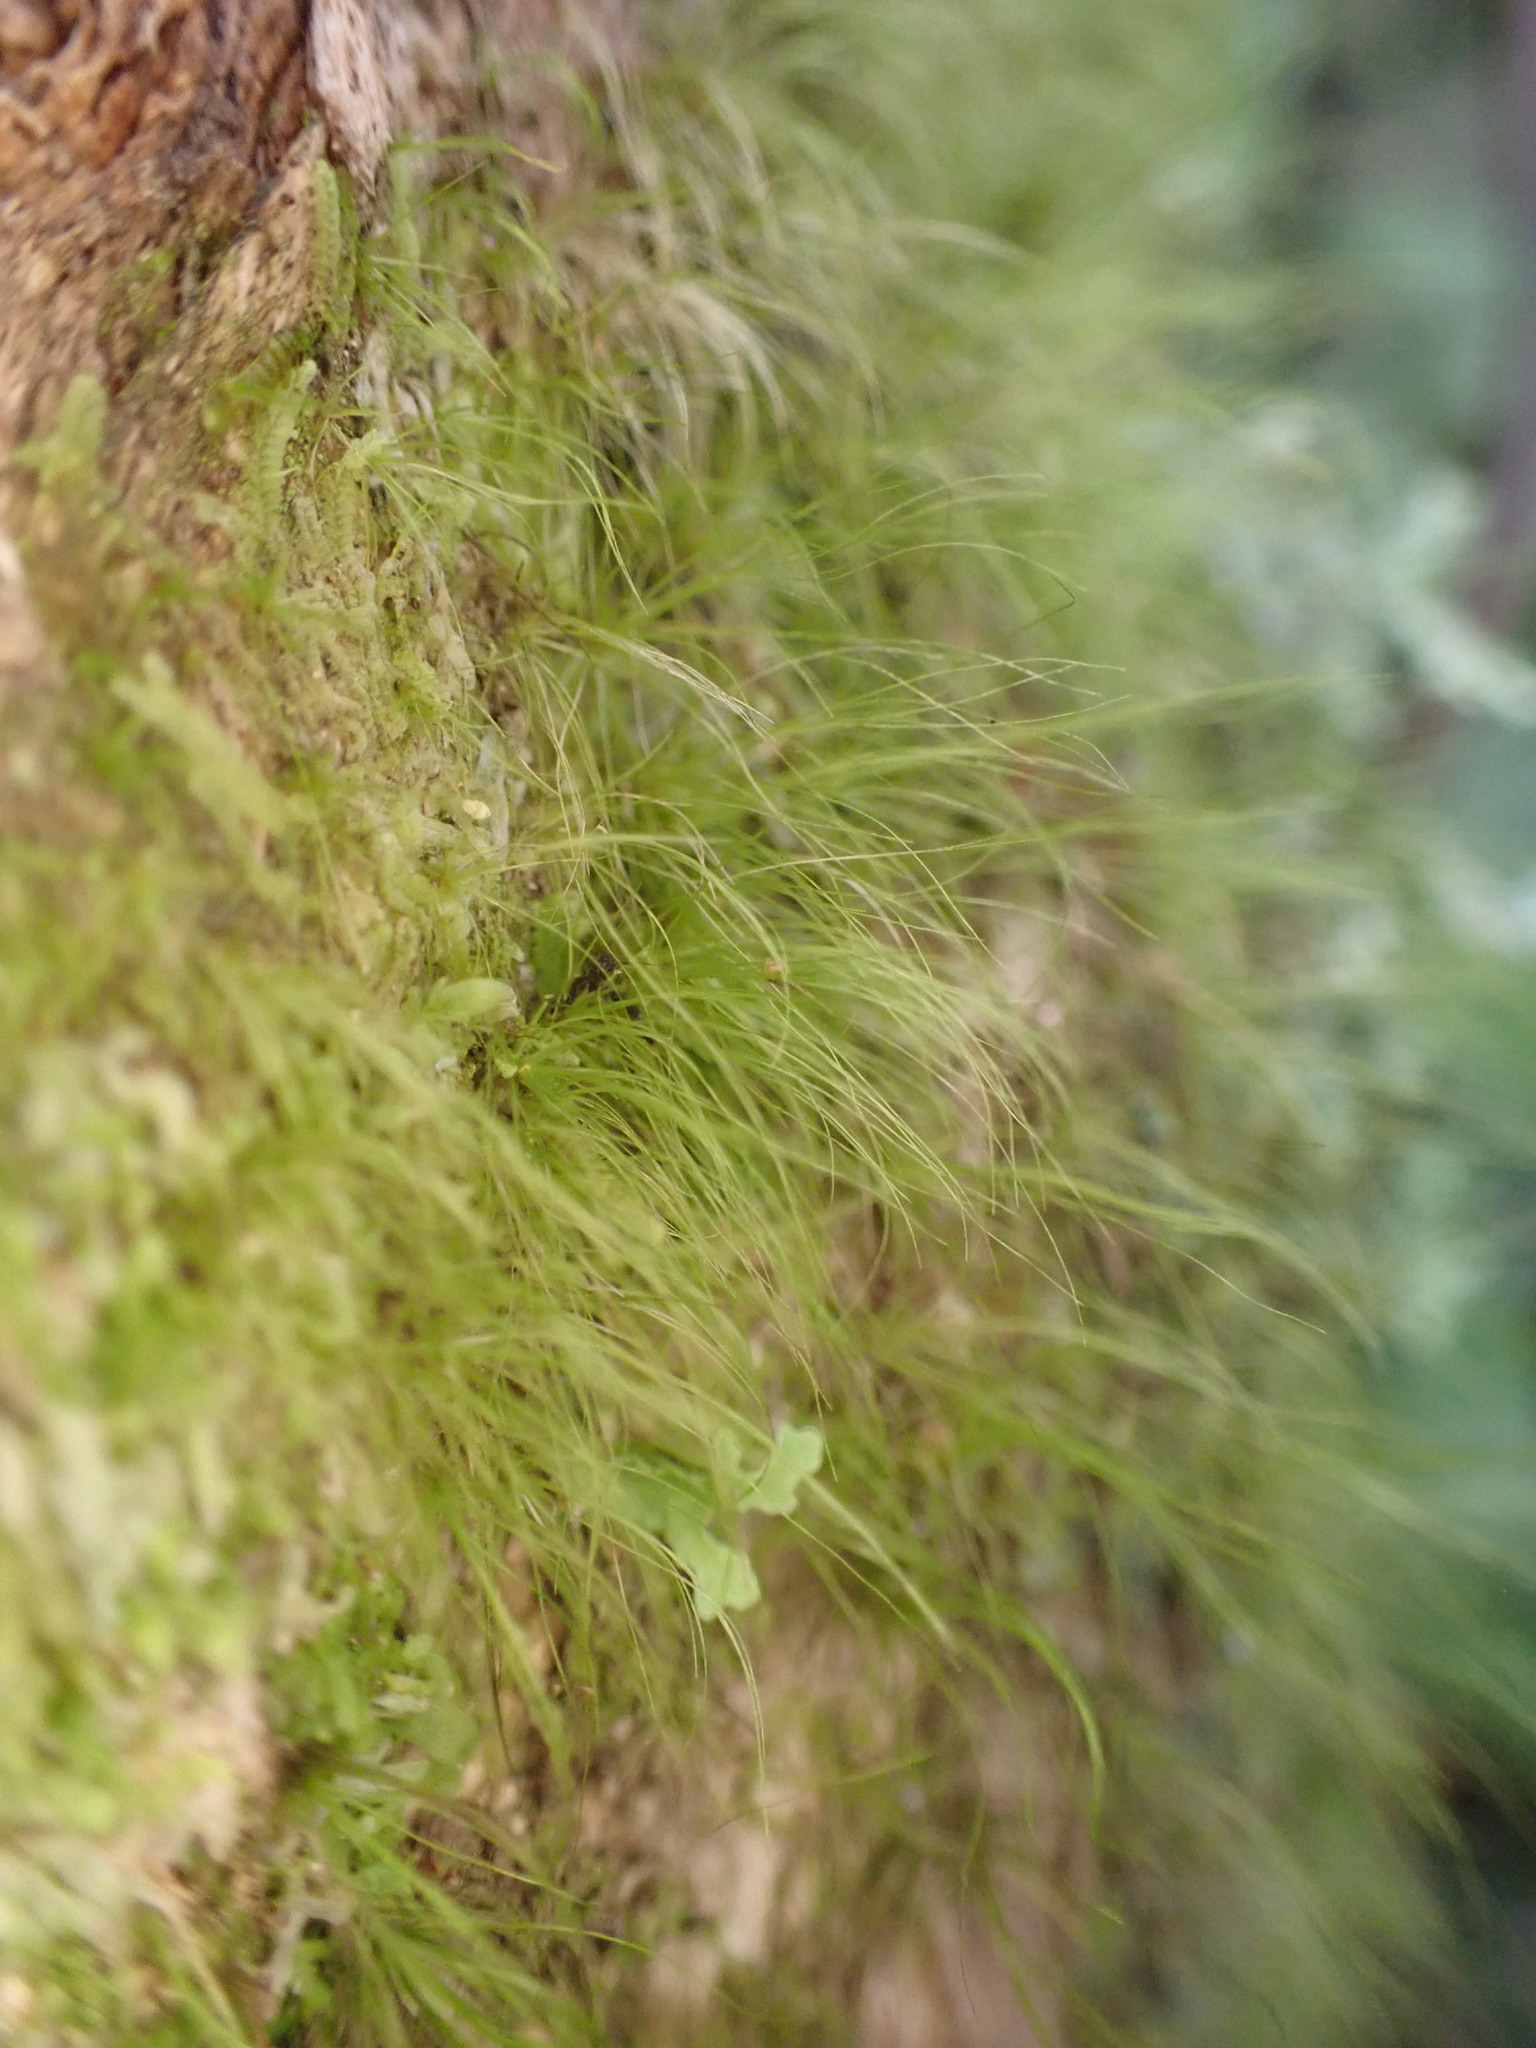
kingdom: Plantae
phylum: Bryophyta
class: Bryopsida
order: Dicranales
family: Dicranaceae
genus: Dicranoloma
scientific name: Dicranoloma menziesii
